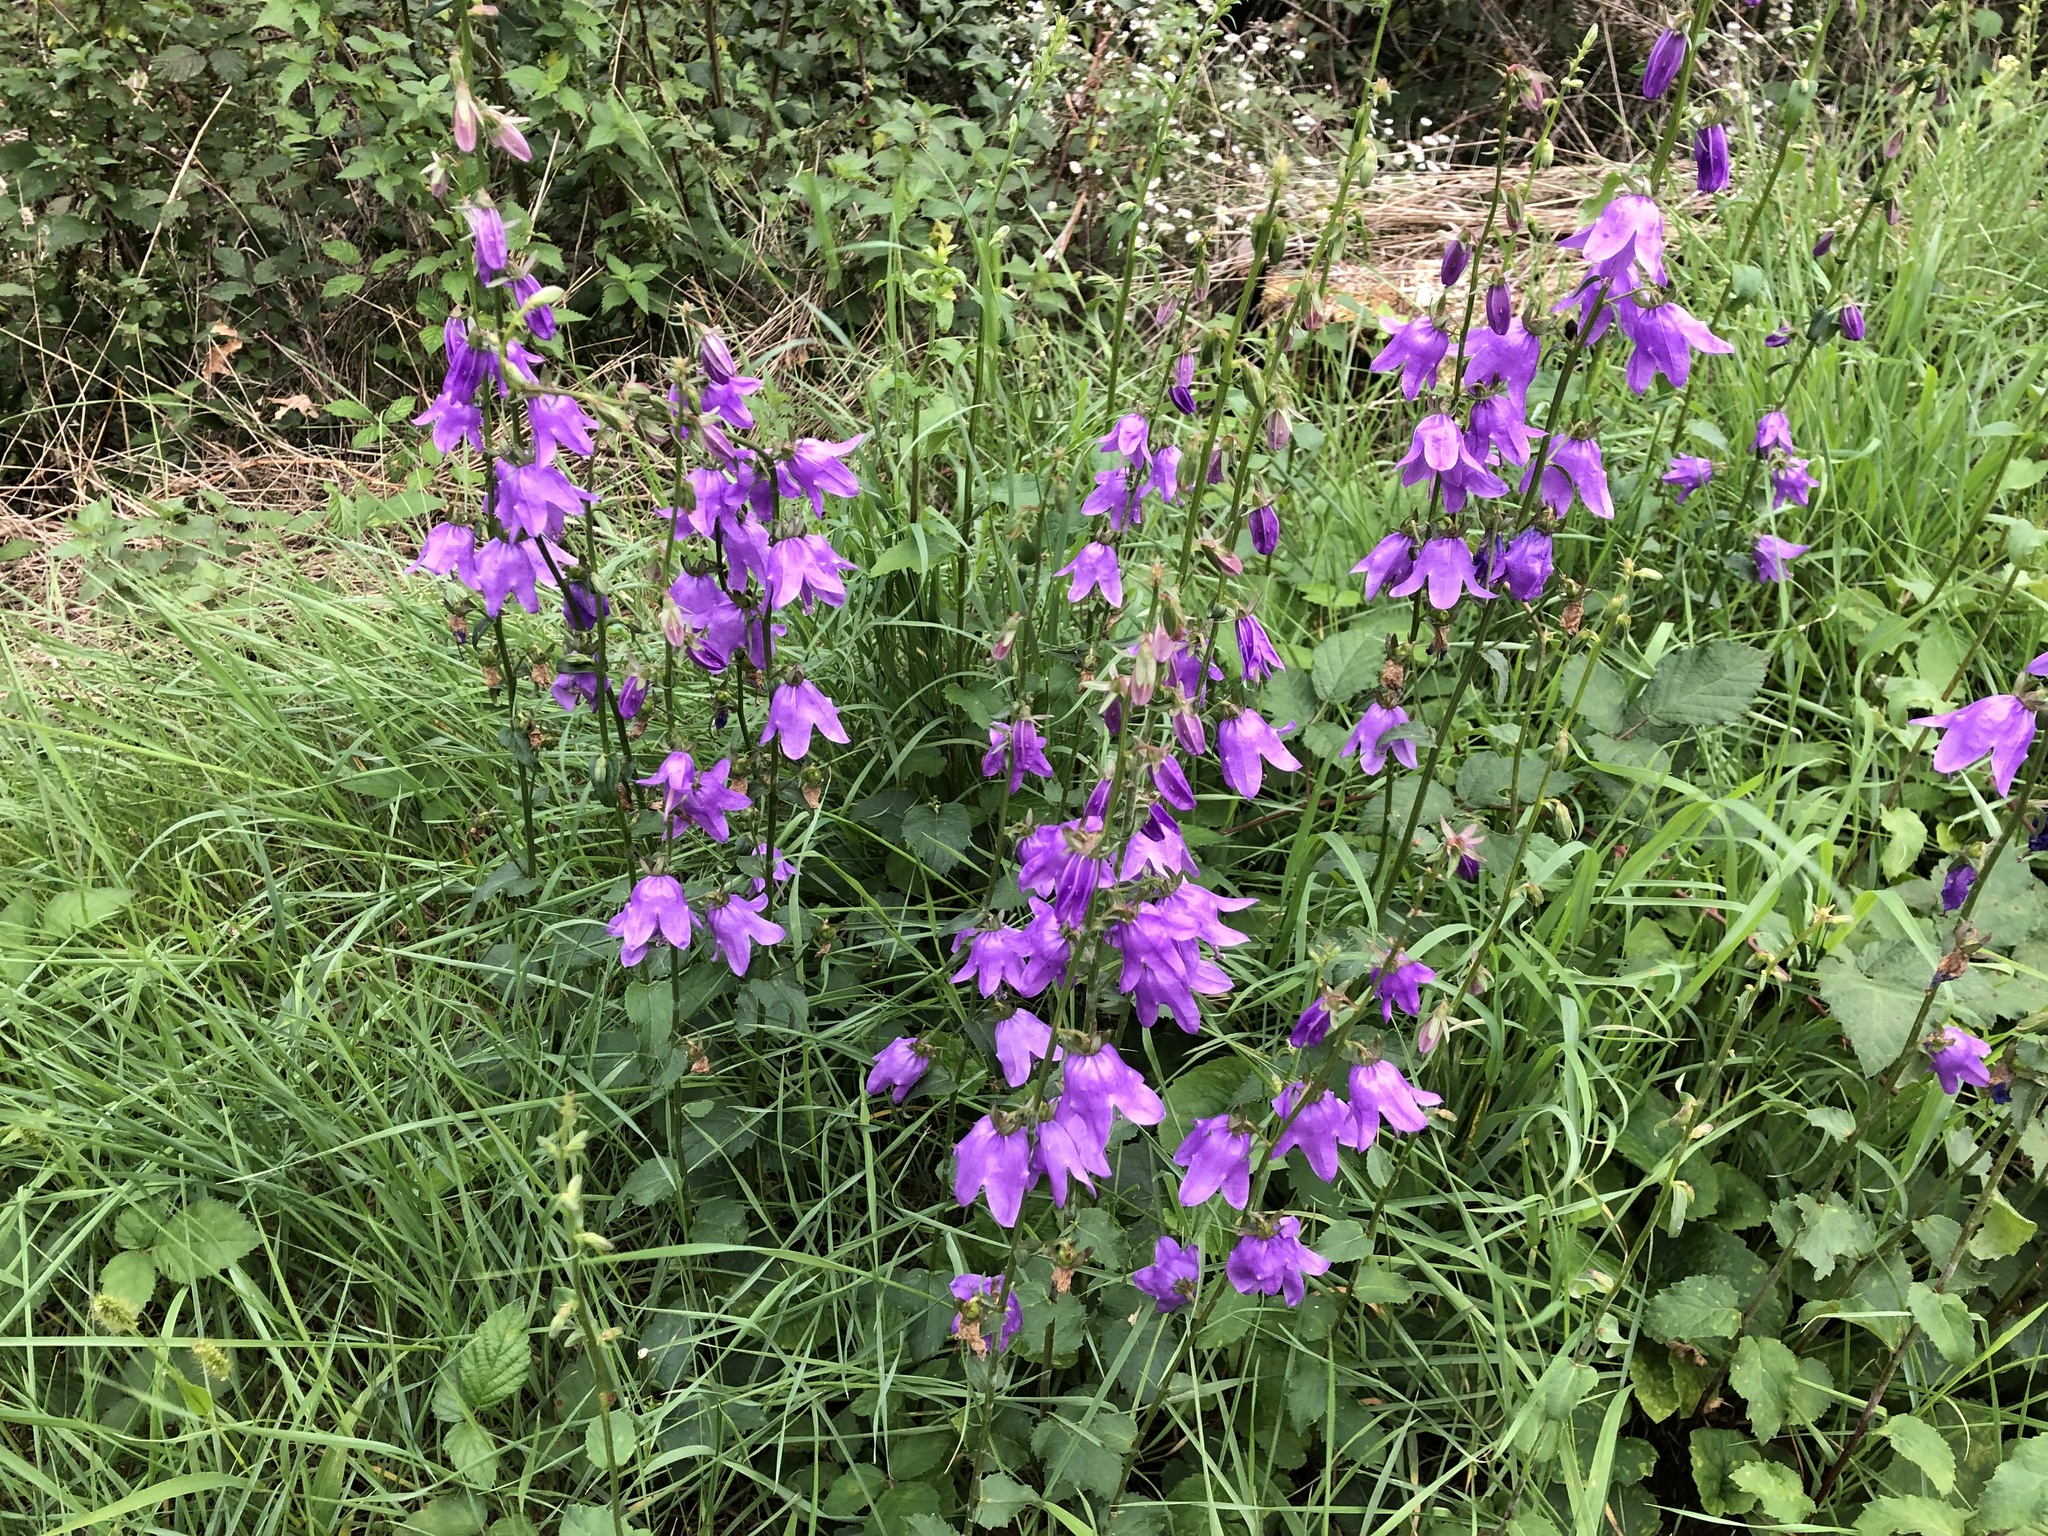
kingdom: Plantae
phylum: Tracheophyta
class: Magnoliopsida
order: Asterales
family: Campanulaceae
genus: Campanula
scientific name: Campanula rapunculoides
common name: Creeping bellflower
